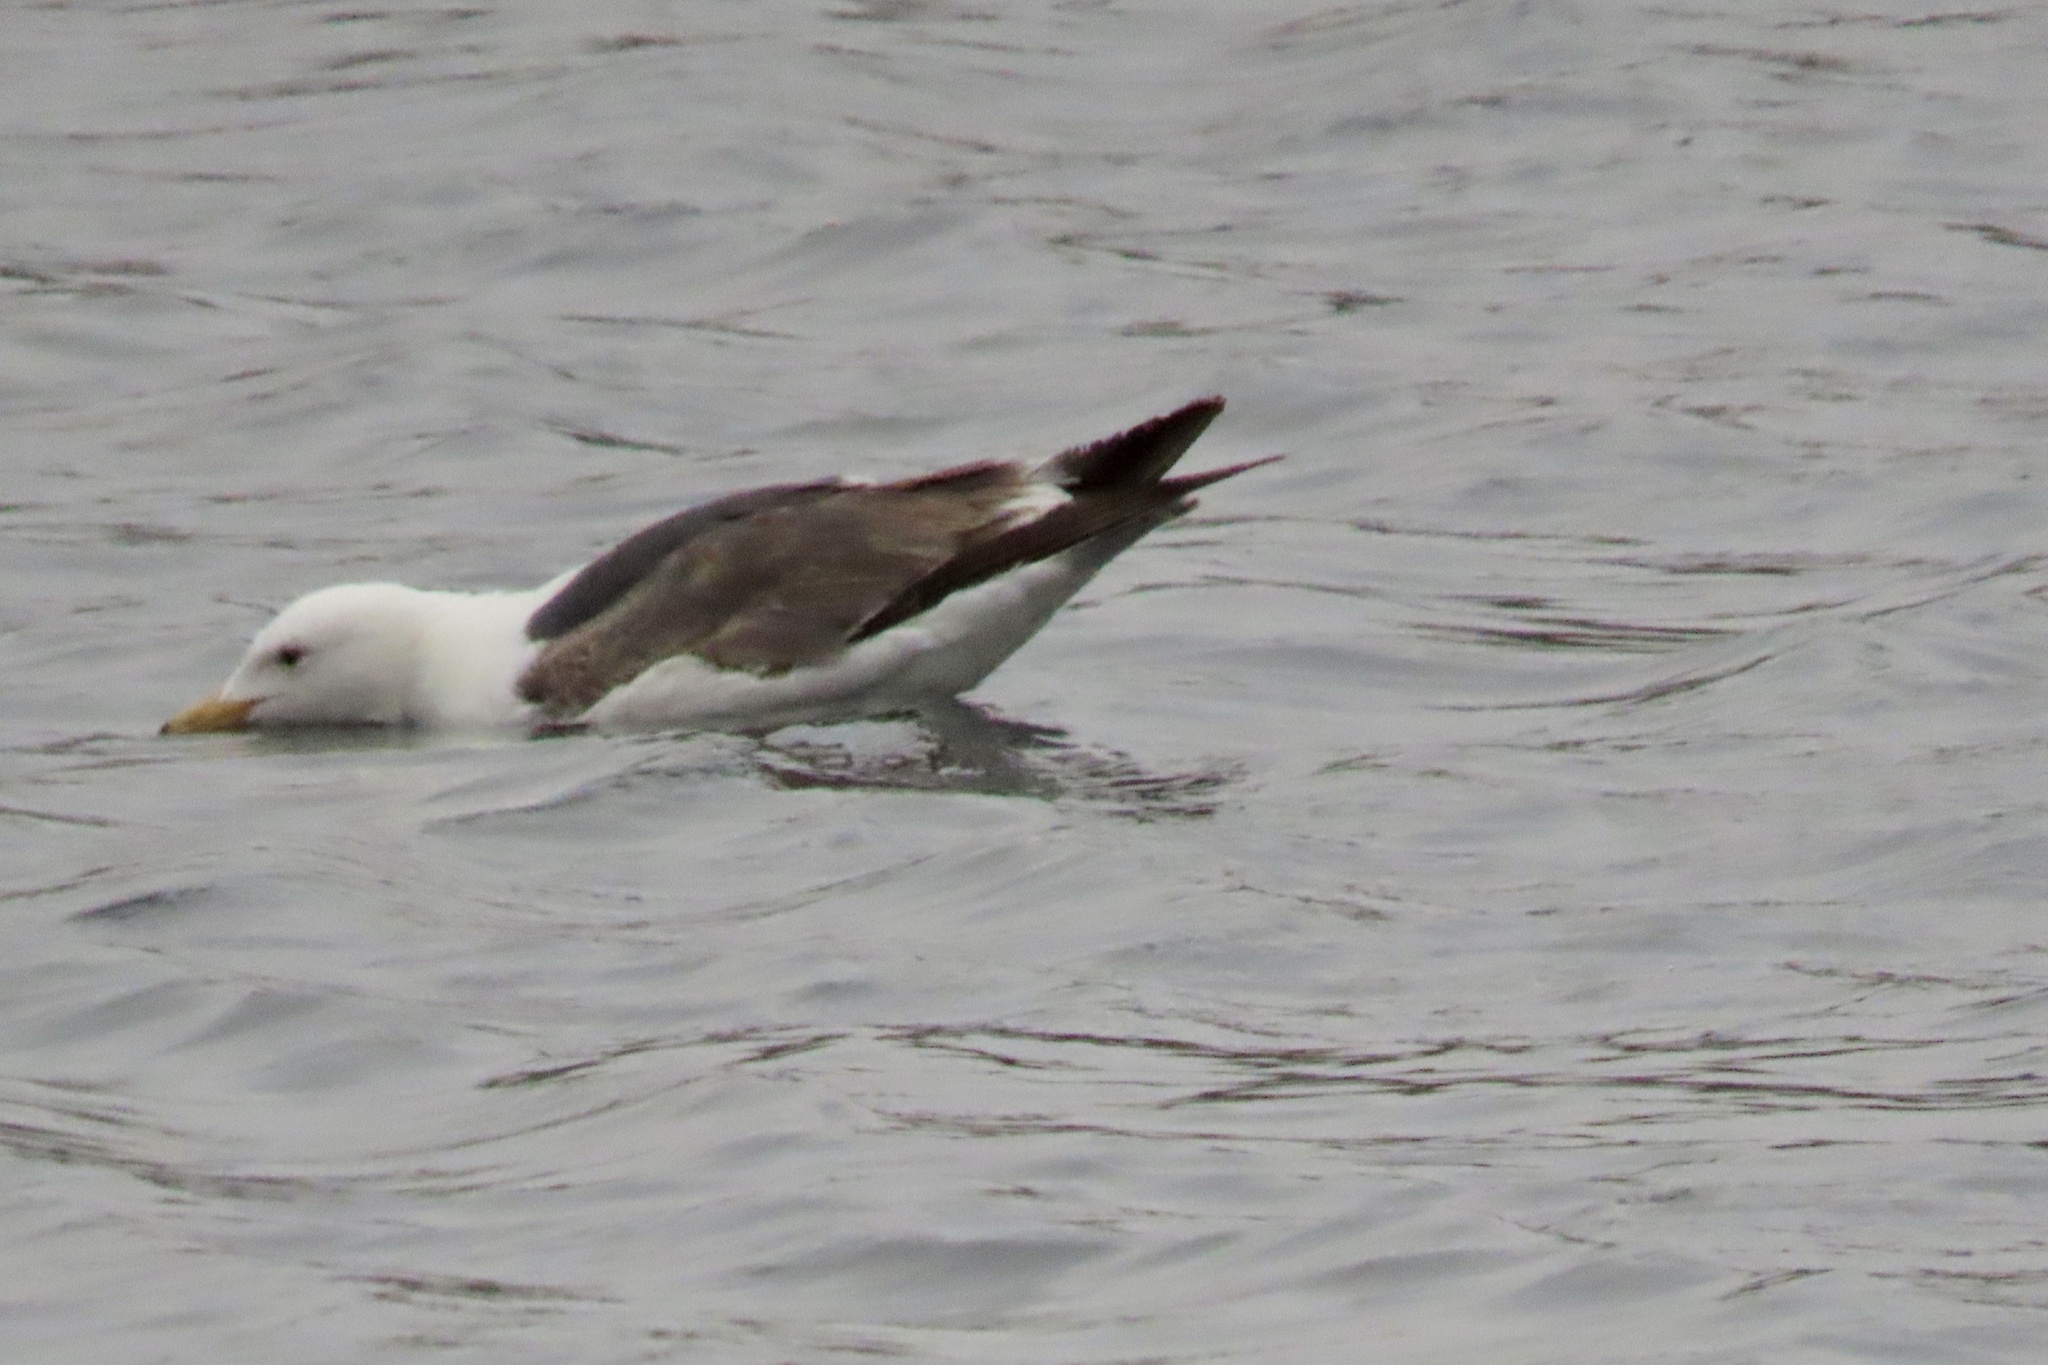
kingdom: Animalia
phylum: Chordata
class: Aves
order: Charadriiformes
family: Laridae
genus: Larus
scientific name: Larus occidentalis
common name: Western gull
